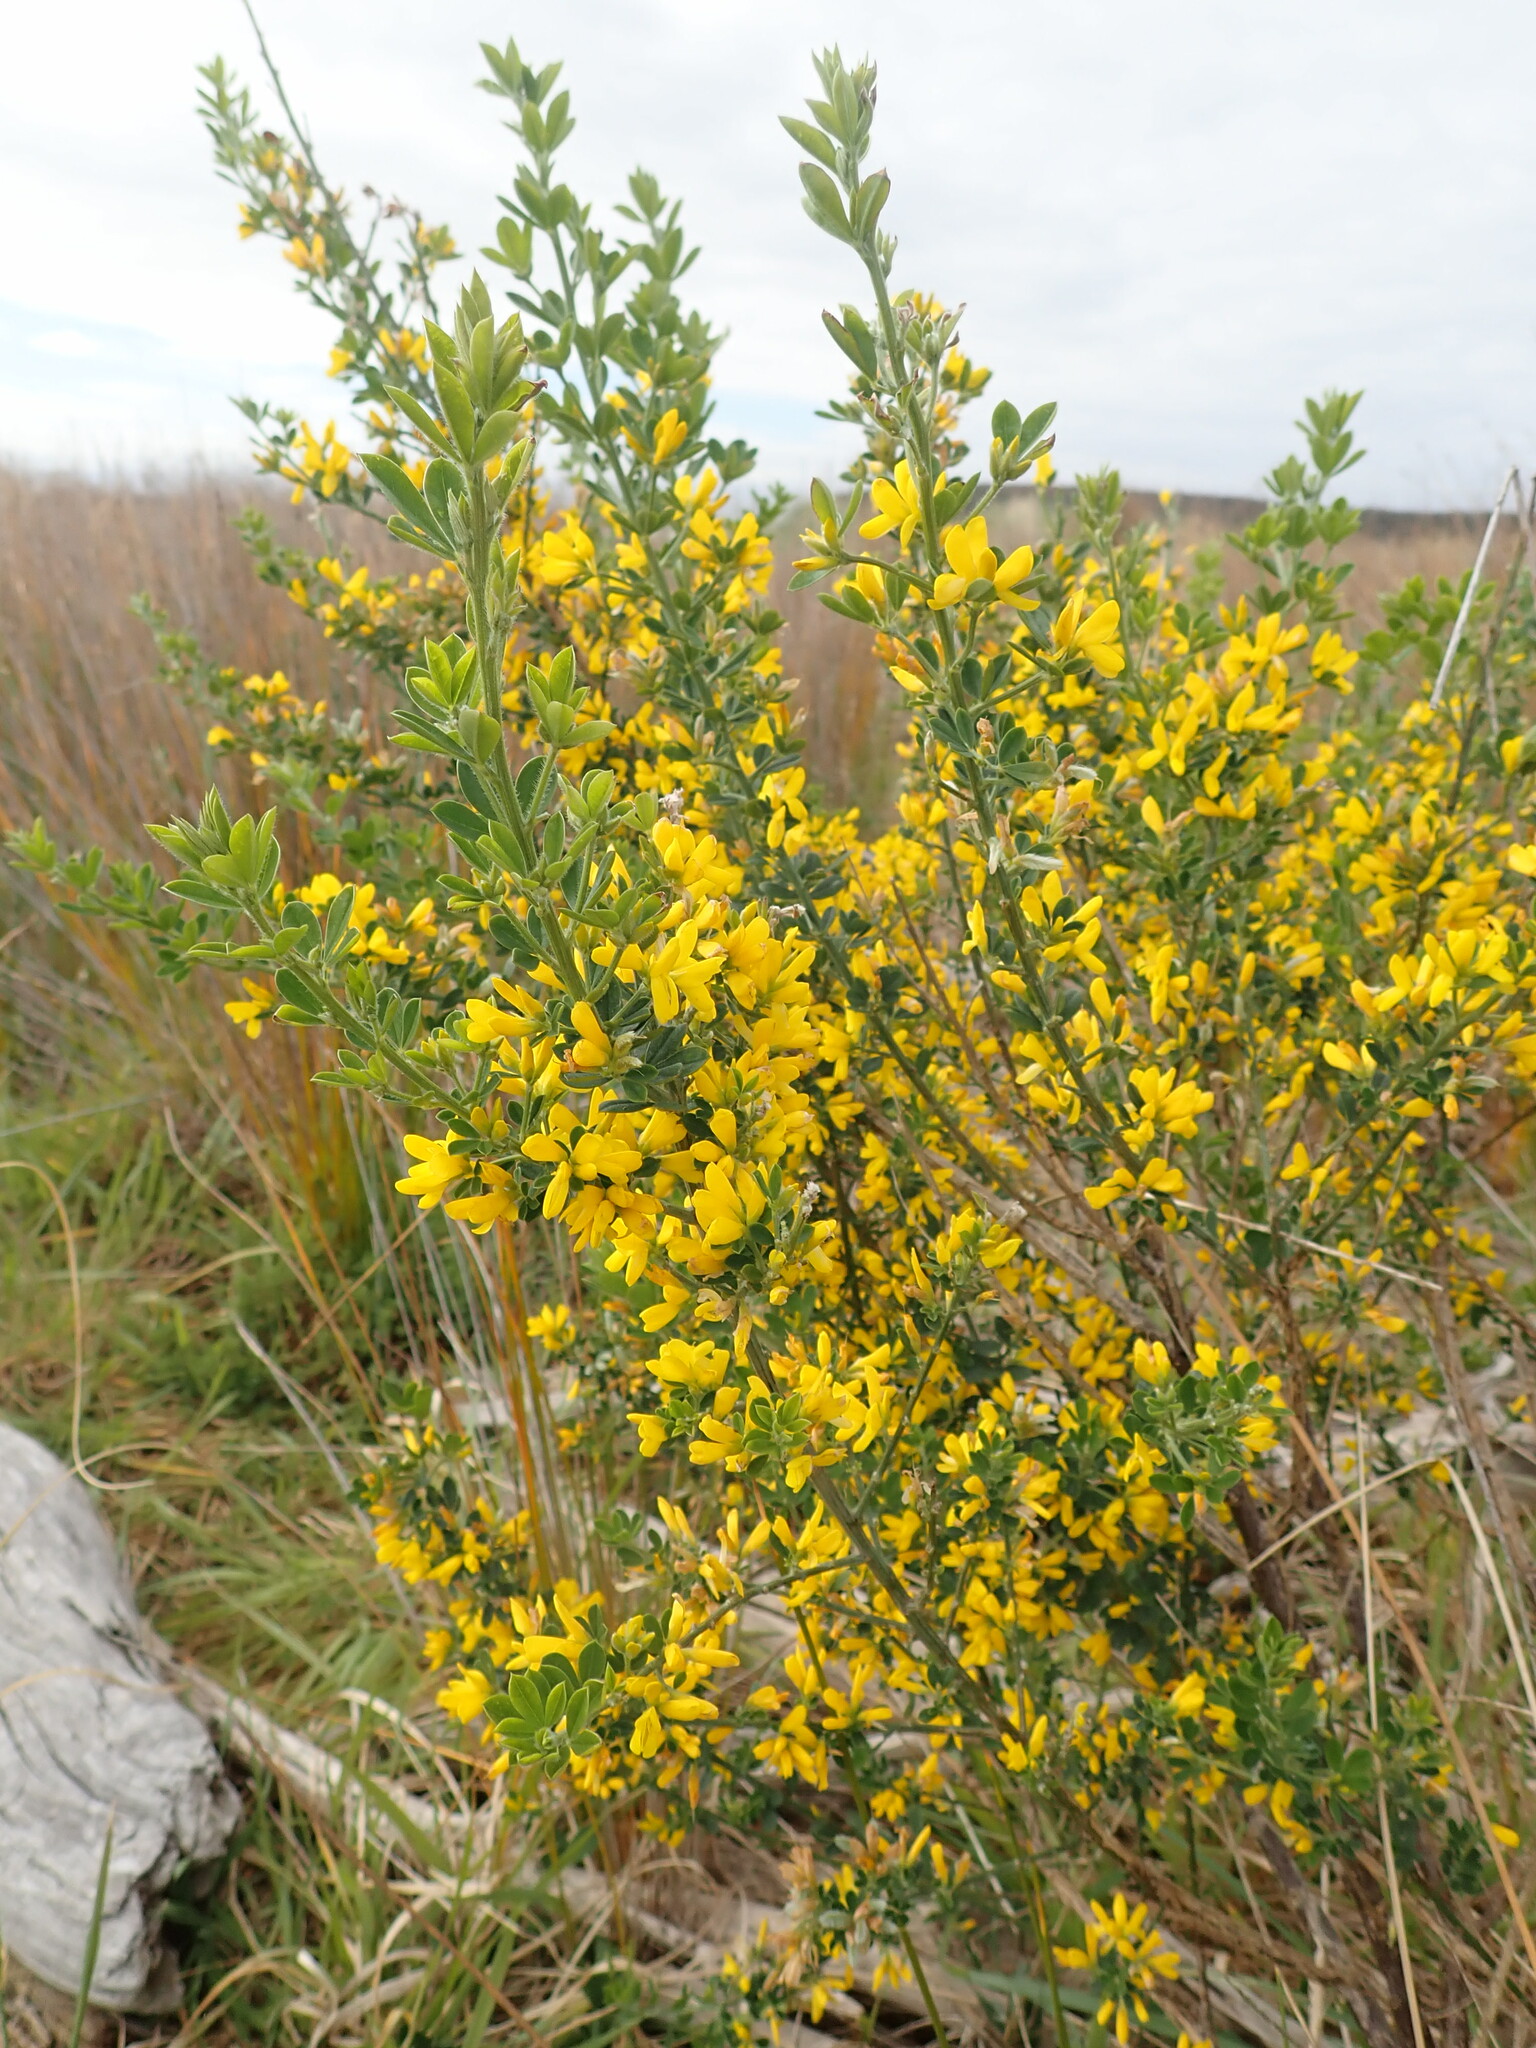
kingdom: Plantae
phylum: Tracheophyta
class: Magnoliopsida
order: Fabales
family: Fabaceae
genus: Genista
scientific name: Genista monspessulana
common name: Montpellier broom
